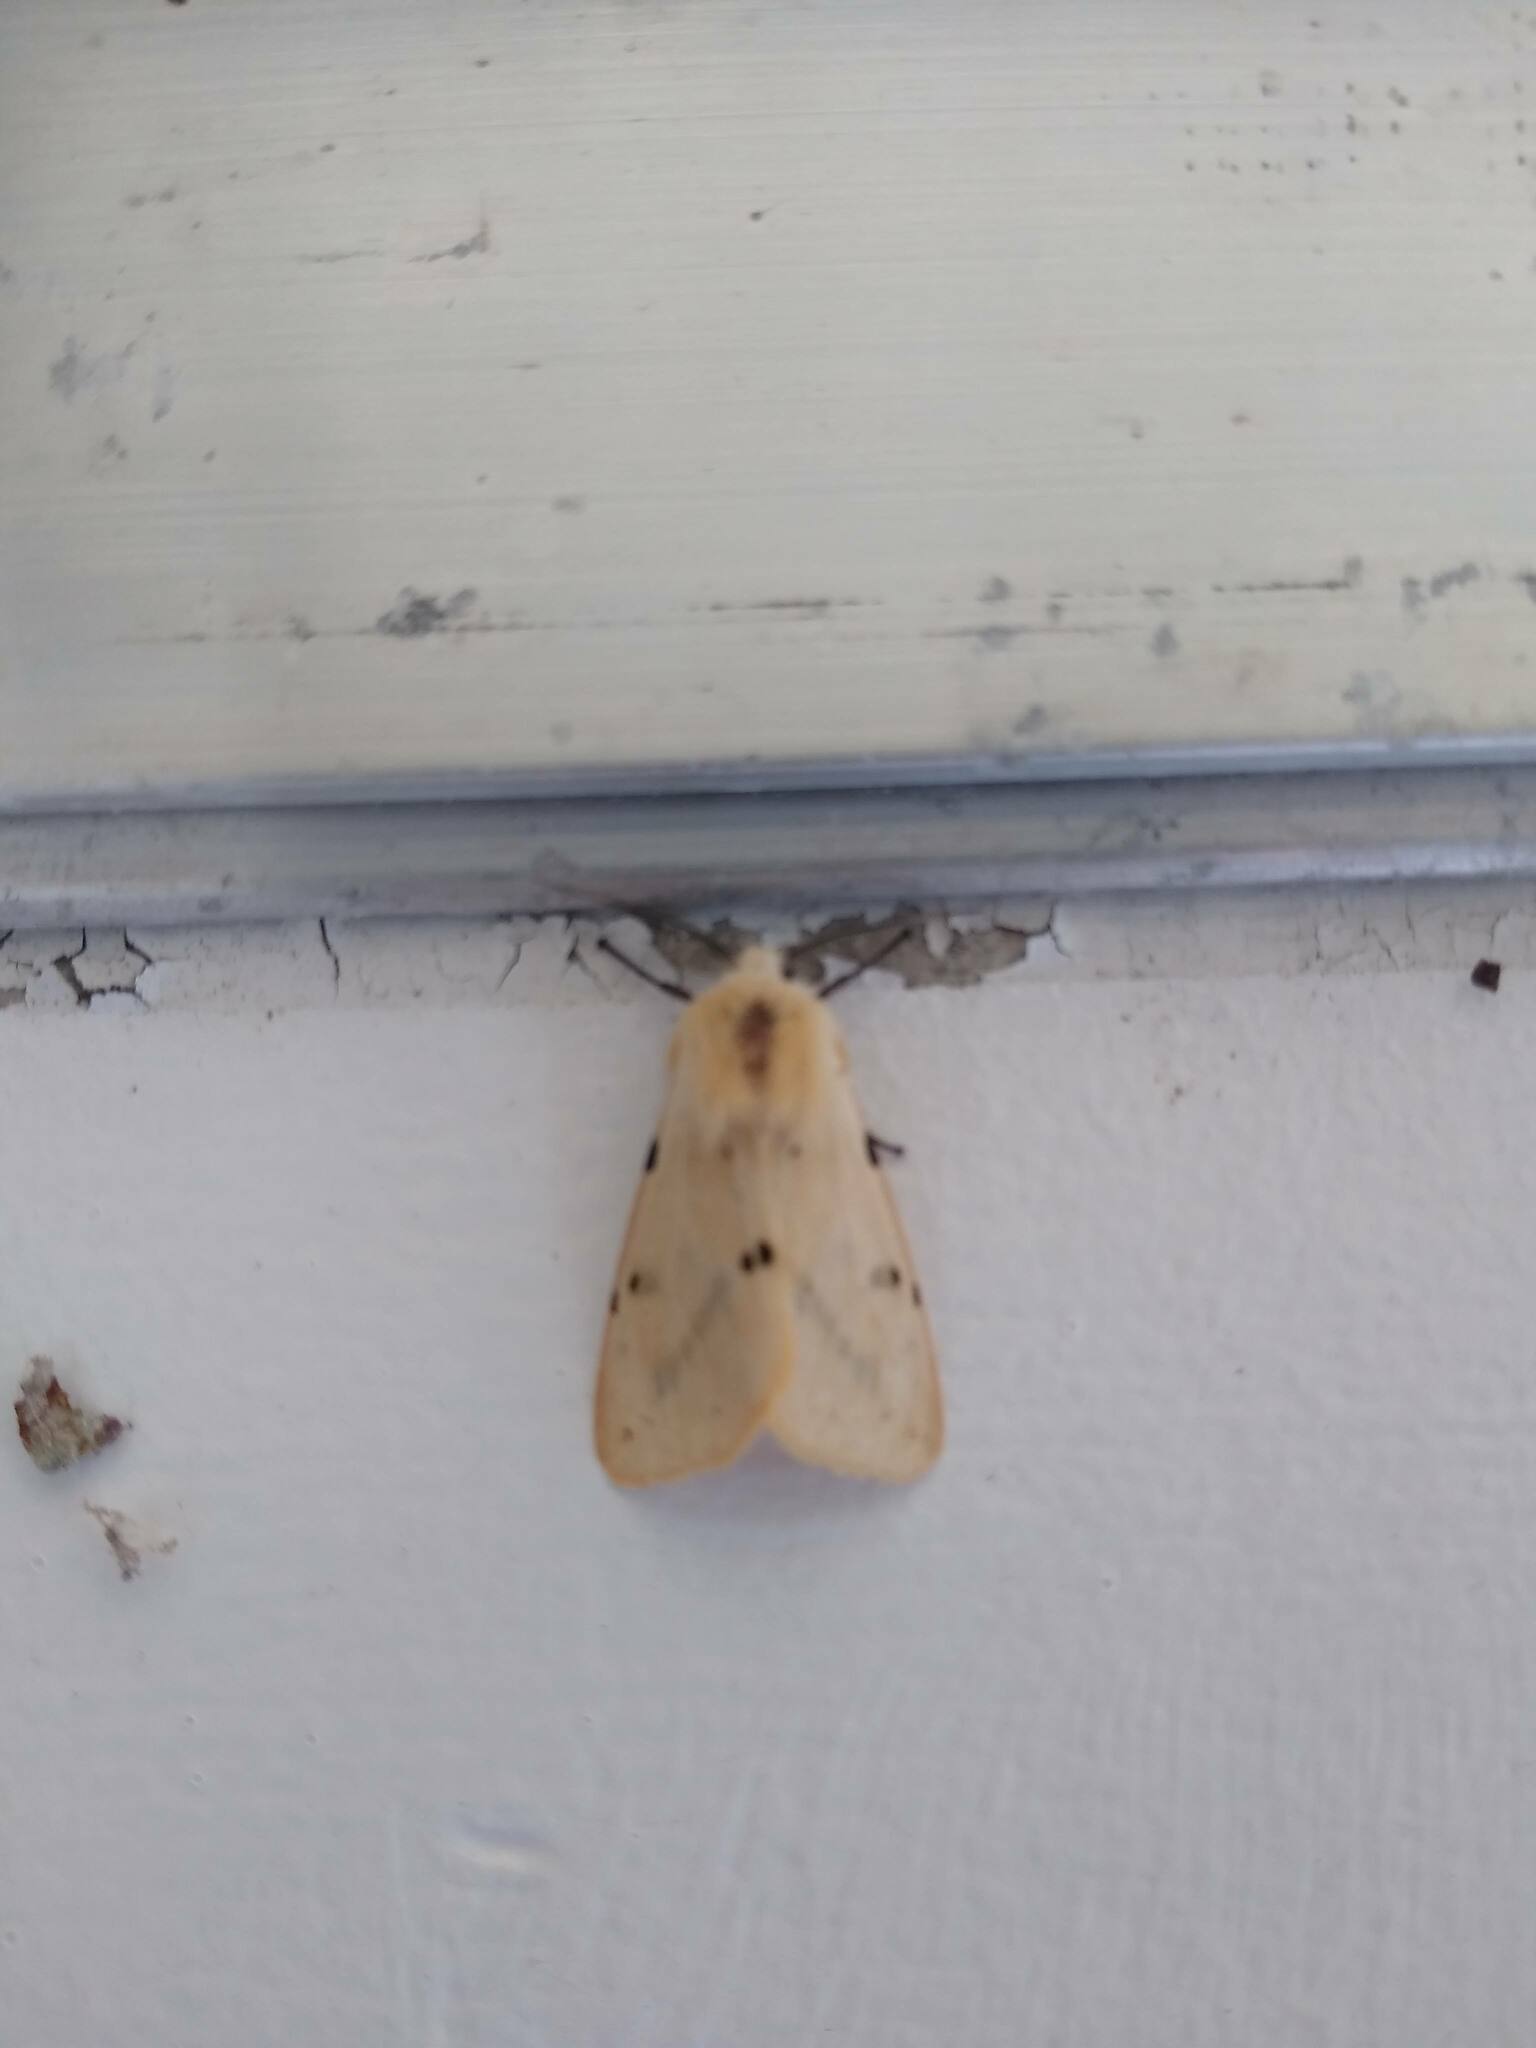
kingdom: Animalia
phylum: Arthropoda
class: Insecta
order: Lepidoptera
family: Erebidae
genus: Spilarctia
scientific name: Spilarctia lutea
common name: Buff ermine
